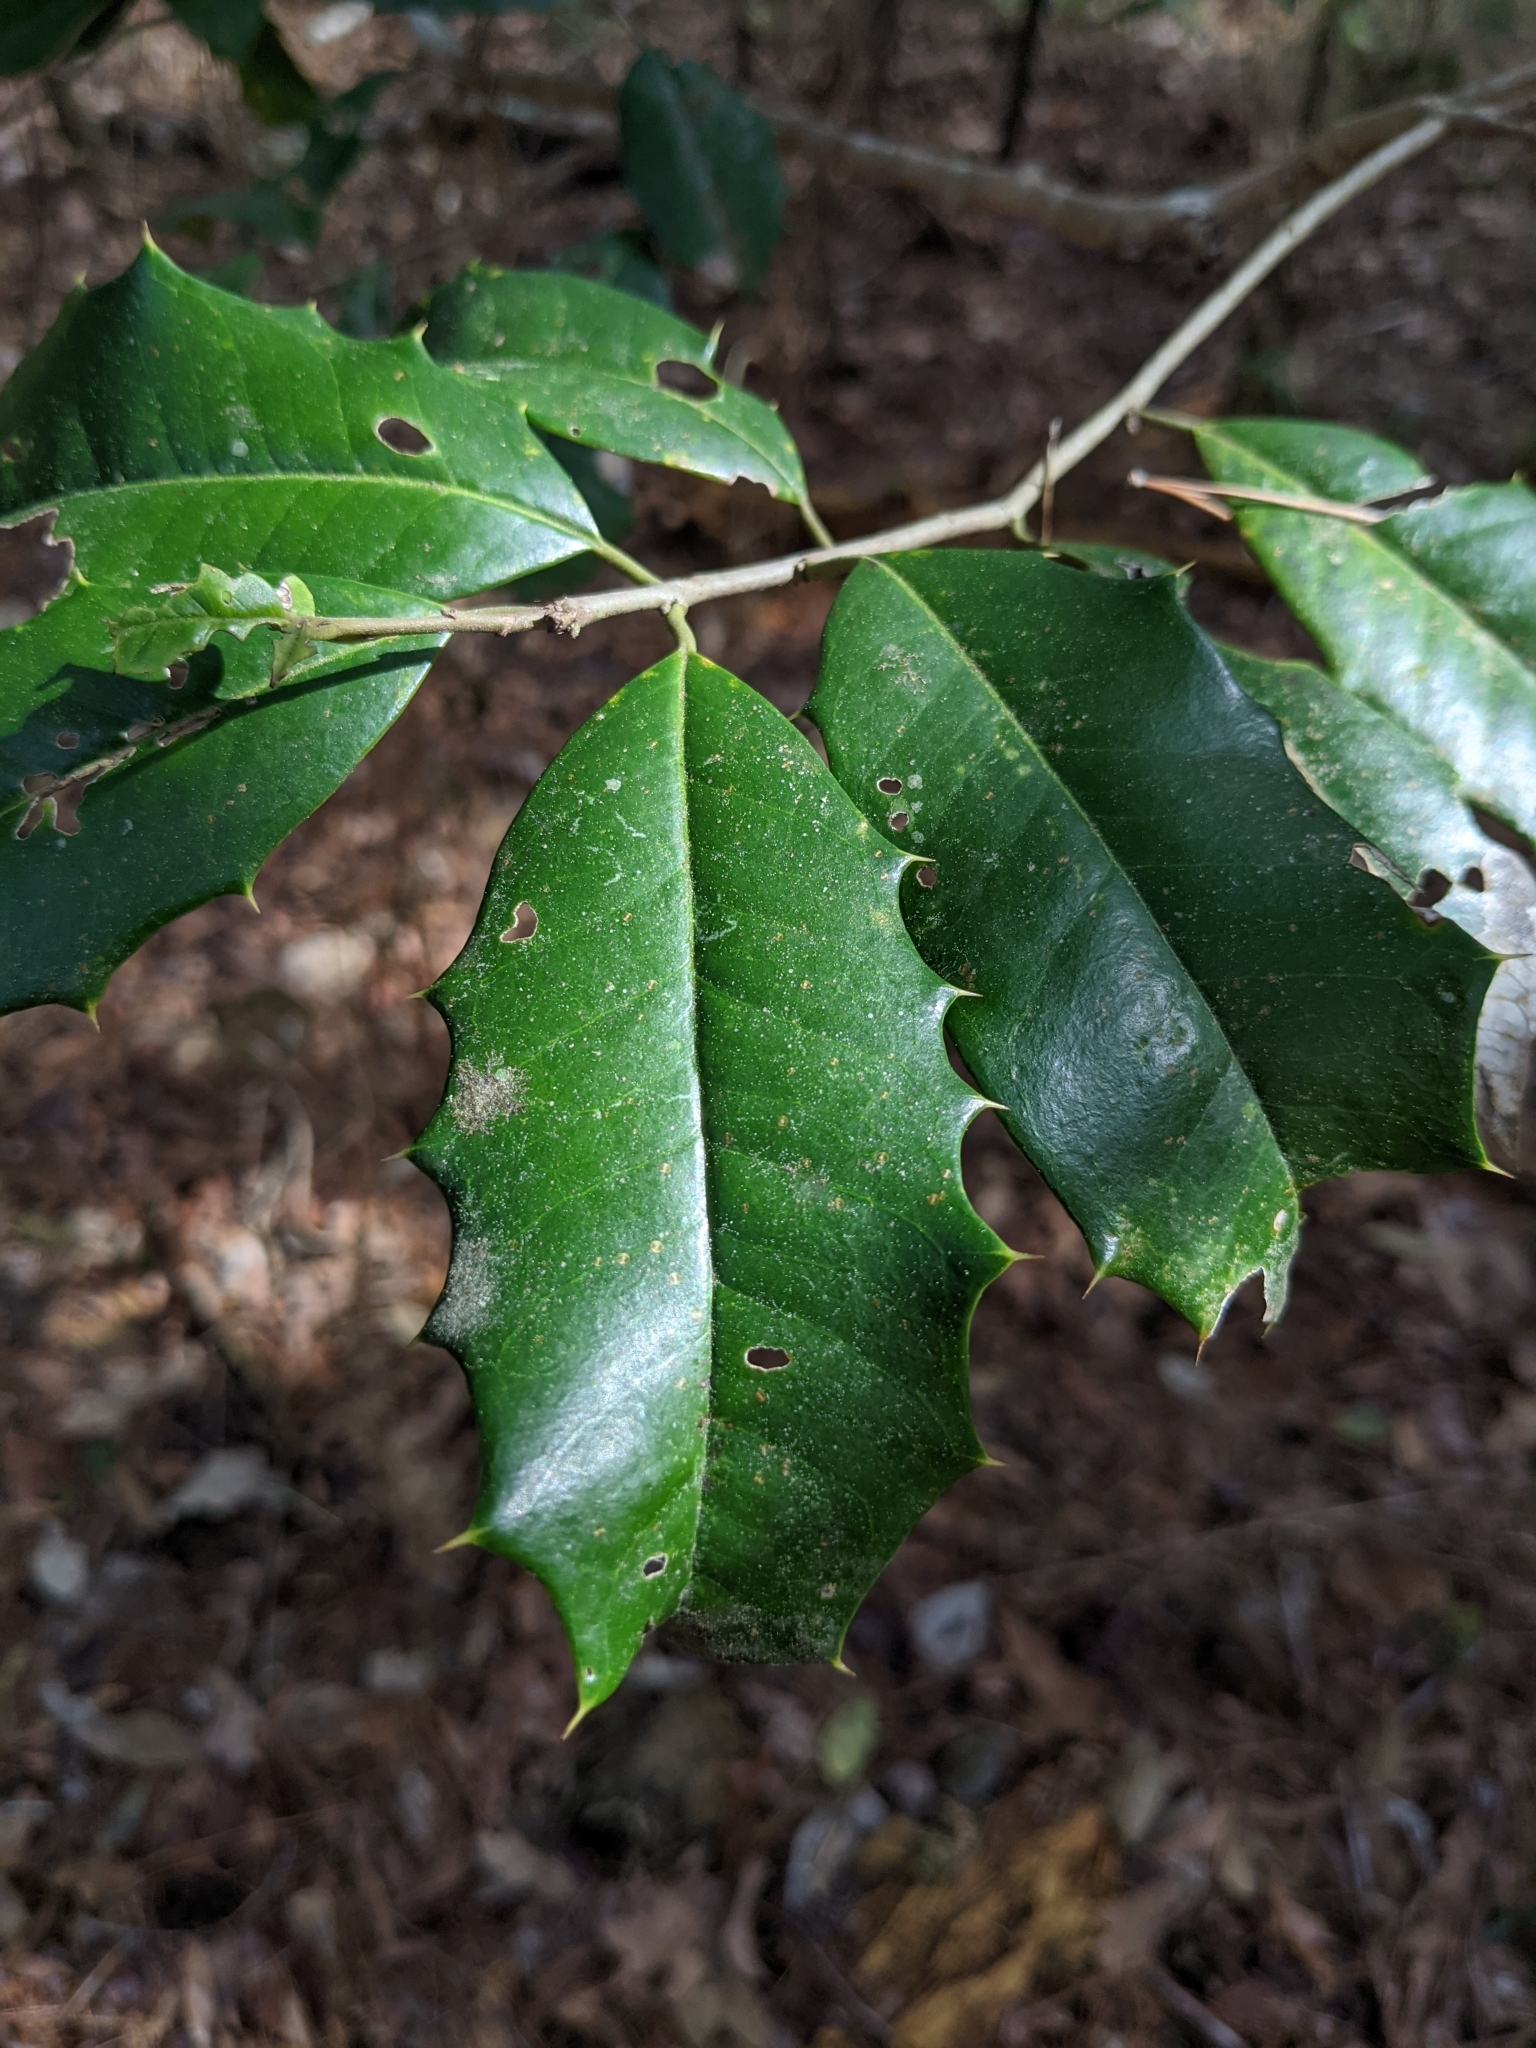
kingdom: Plantae
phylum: Tracheophyta
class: Magnoliopsida
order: Aquifoliales
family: Aquifoliaceae
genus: Ilex
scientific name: Ilex opaca
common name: American holly
